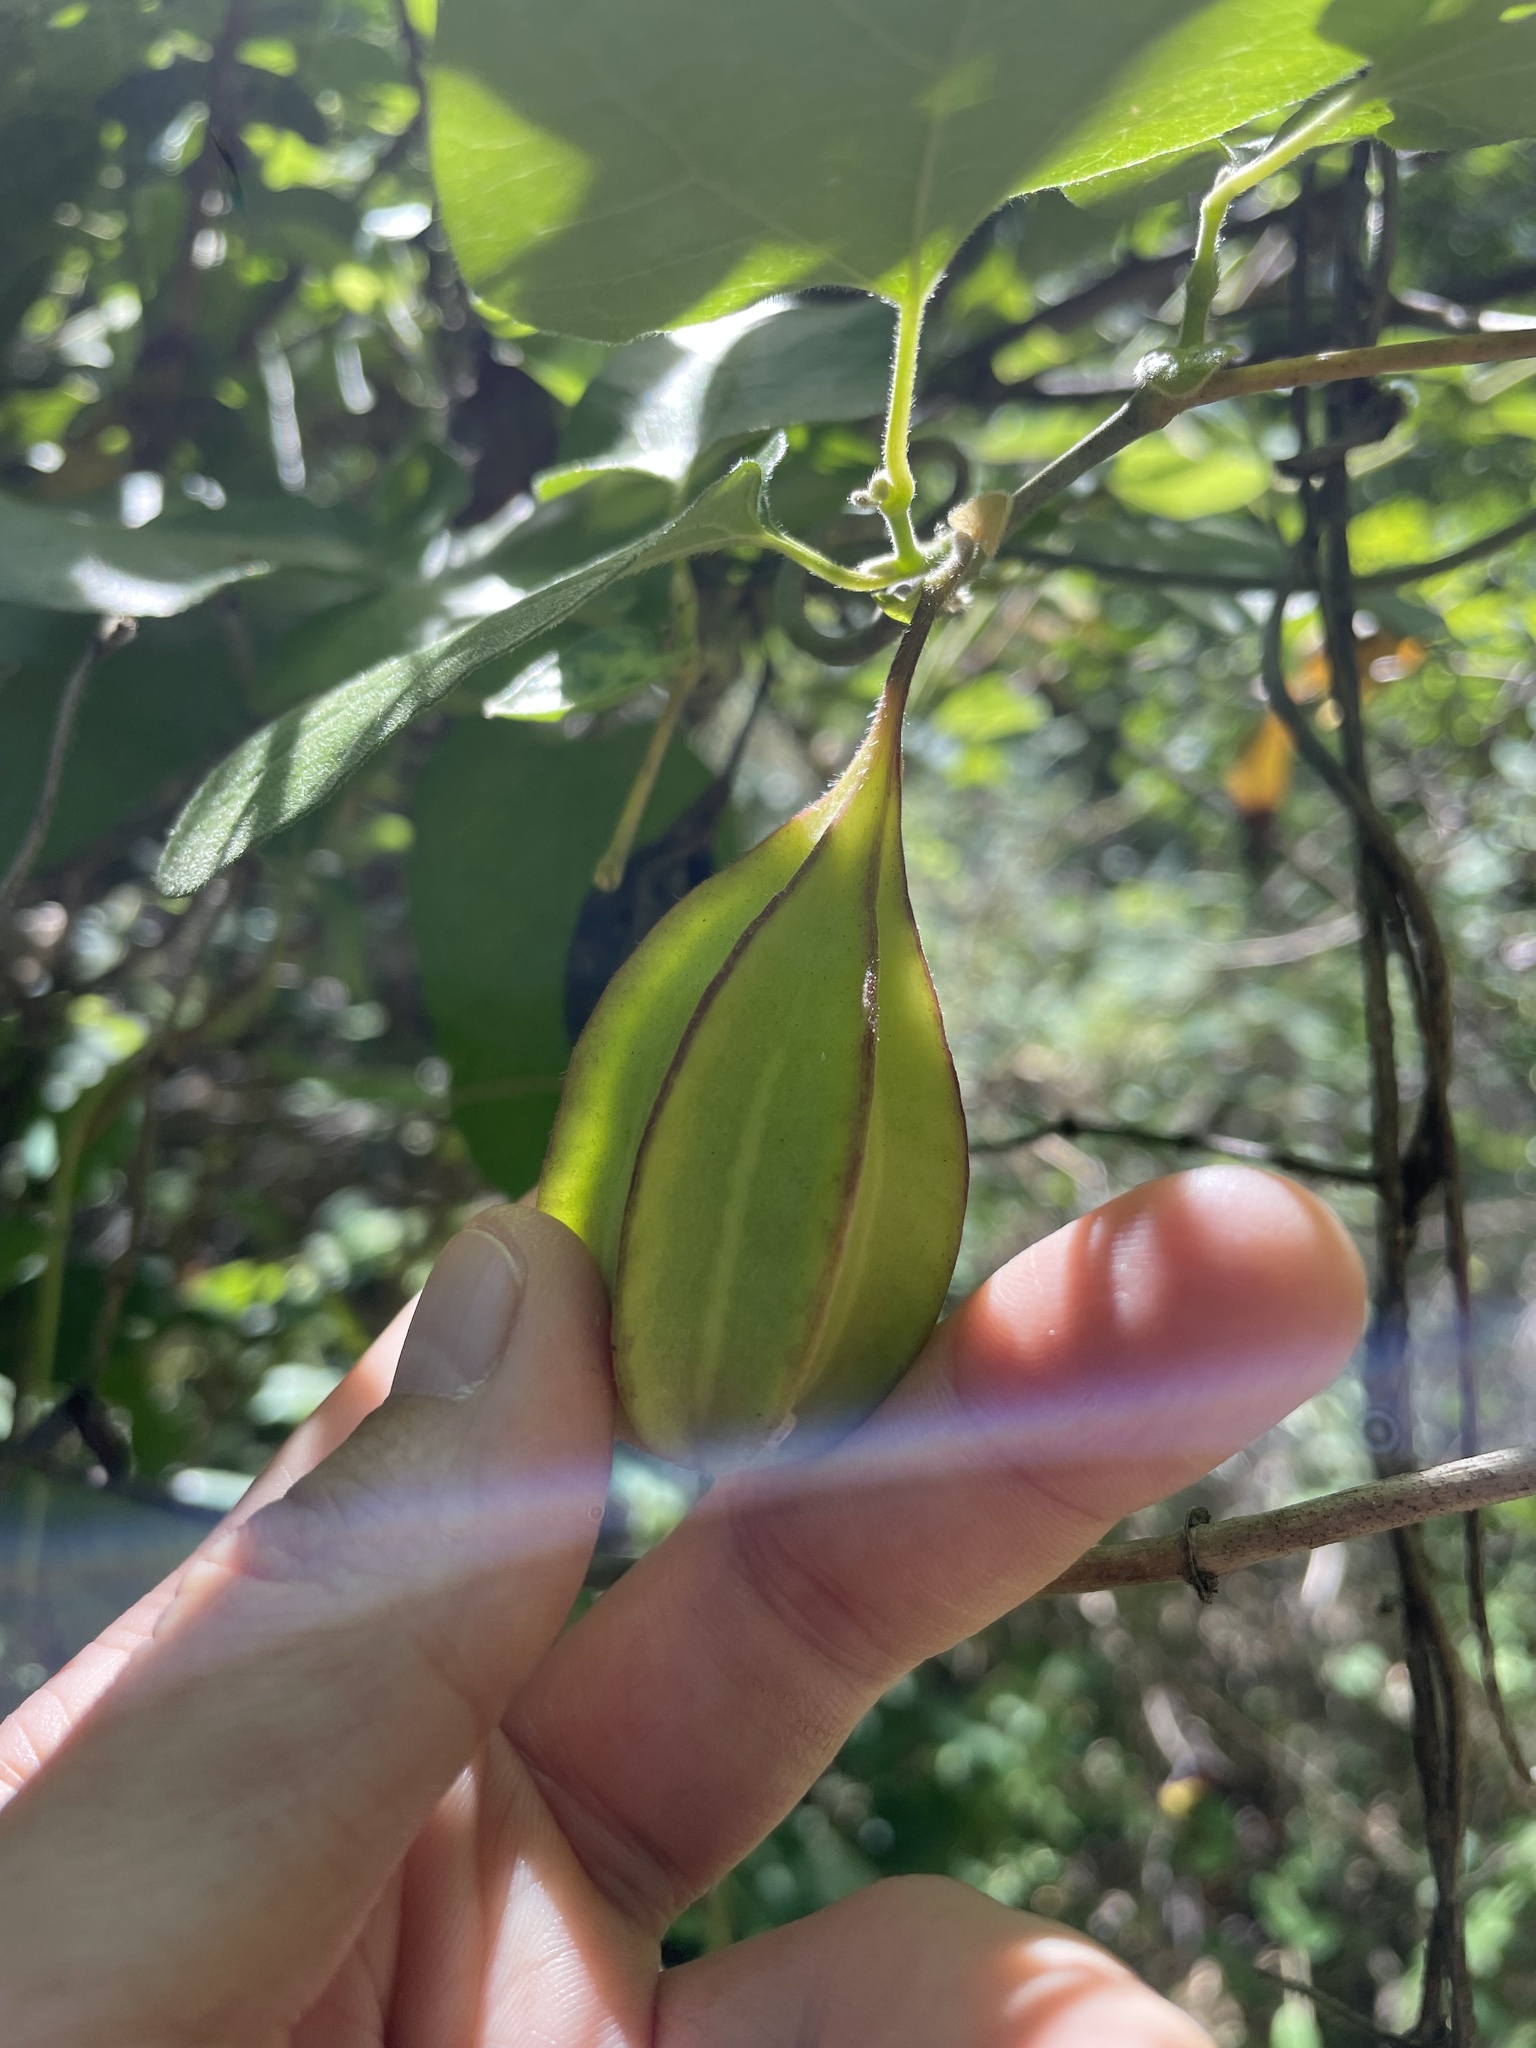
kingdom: Plantae
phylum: Tracheophyta
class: Magnoliopsida
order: Piperales
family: Aristolochiaceae
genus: Isotrema
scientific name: Isotrema californicum
